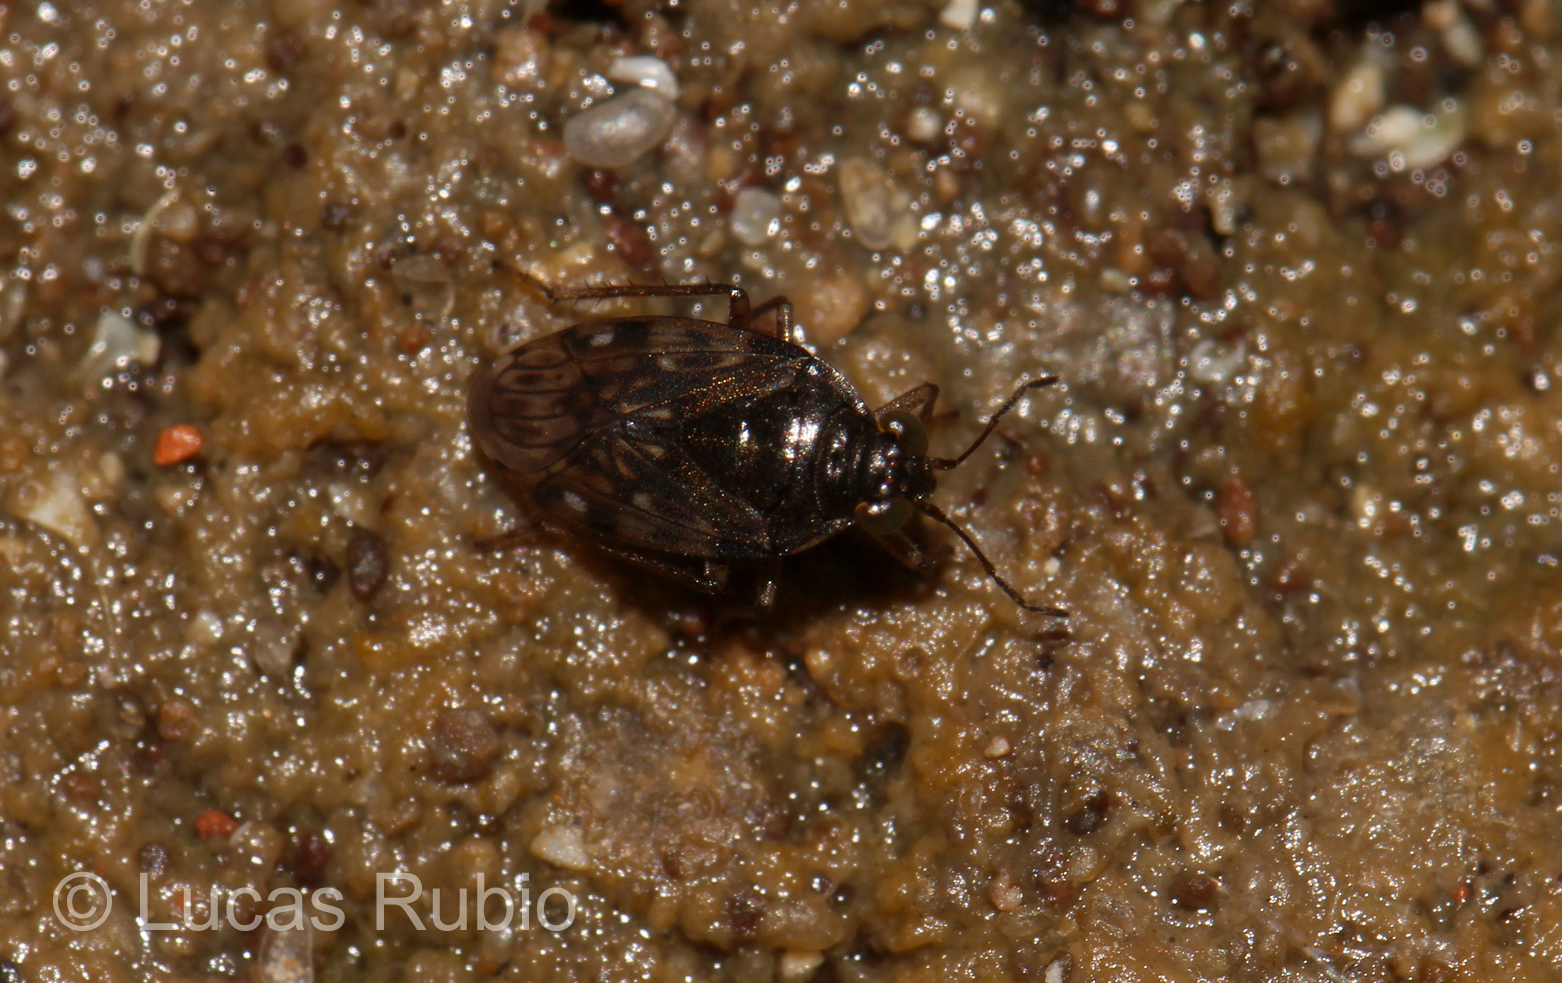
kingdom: Animalia
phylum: Arthropoda
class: Insecta
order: Hemiptera
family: Saldidae
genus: Saldula
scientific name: Saldula coxalis
